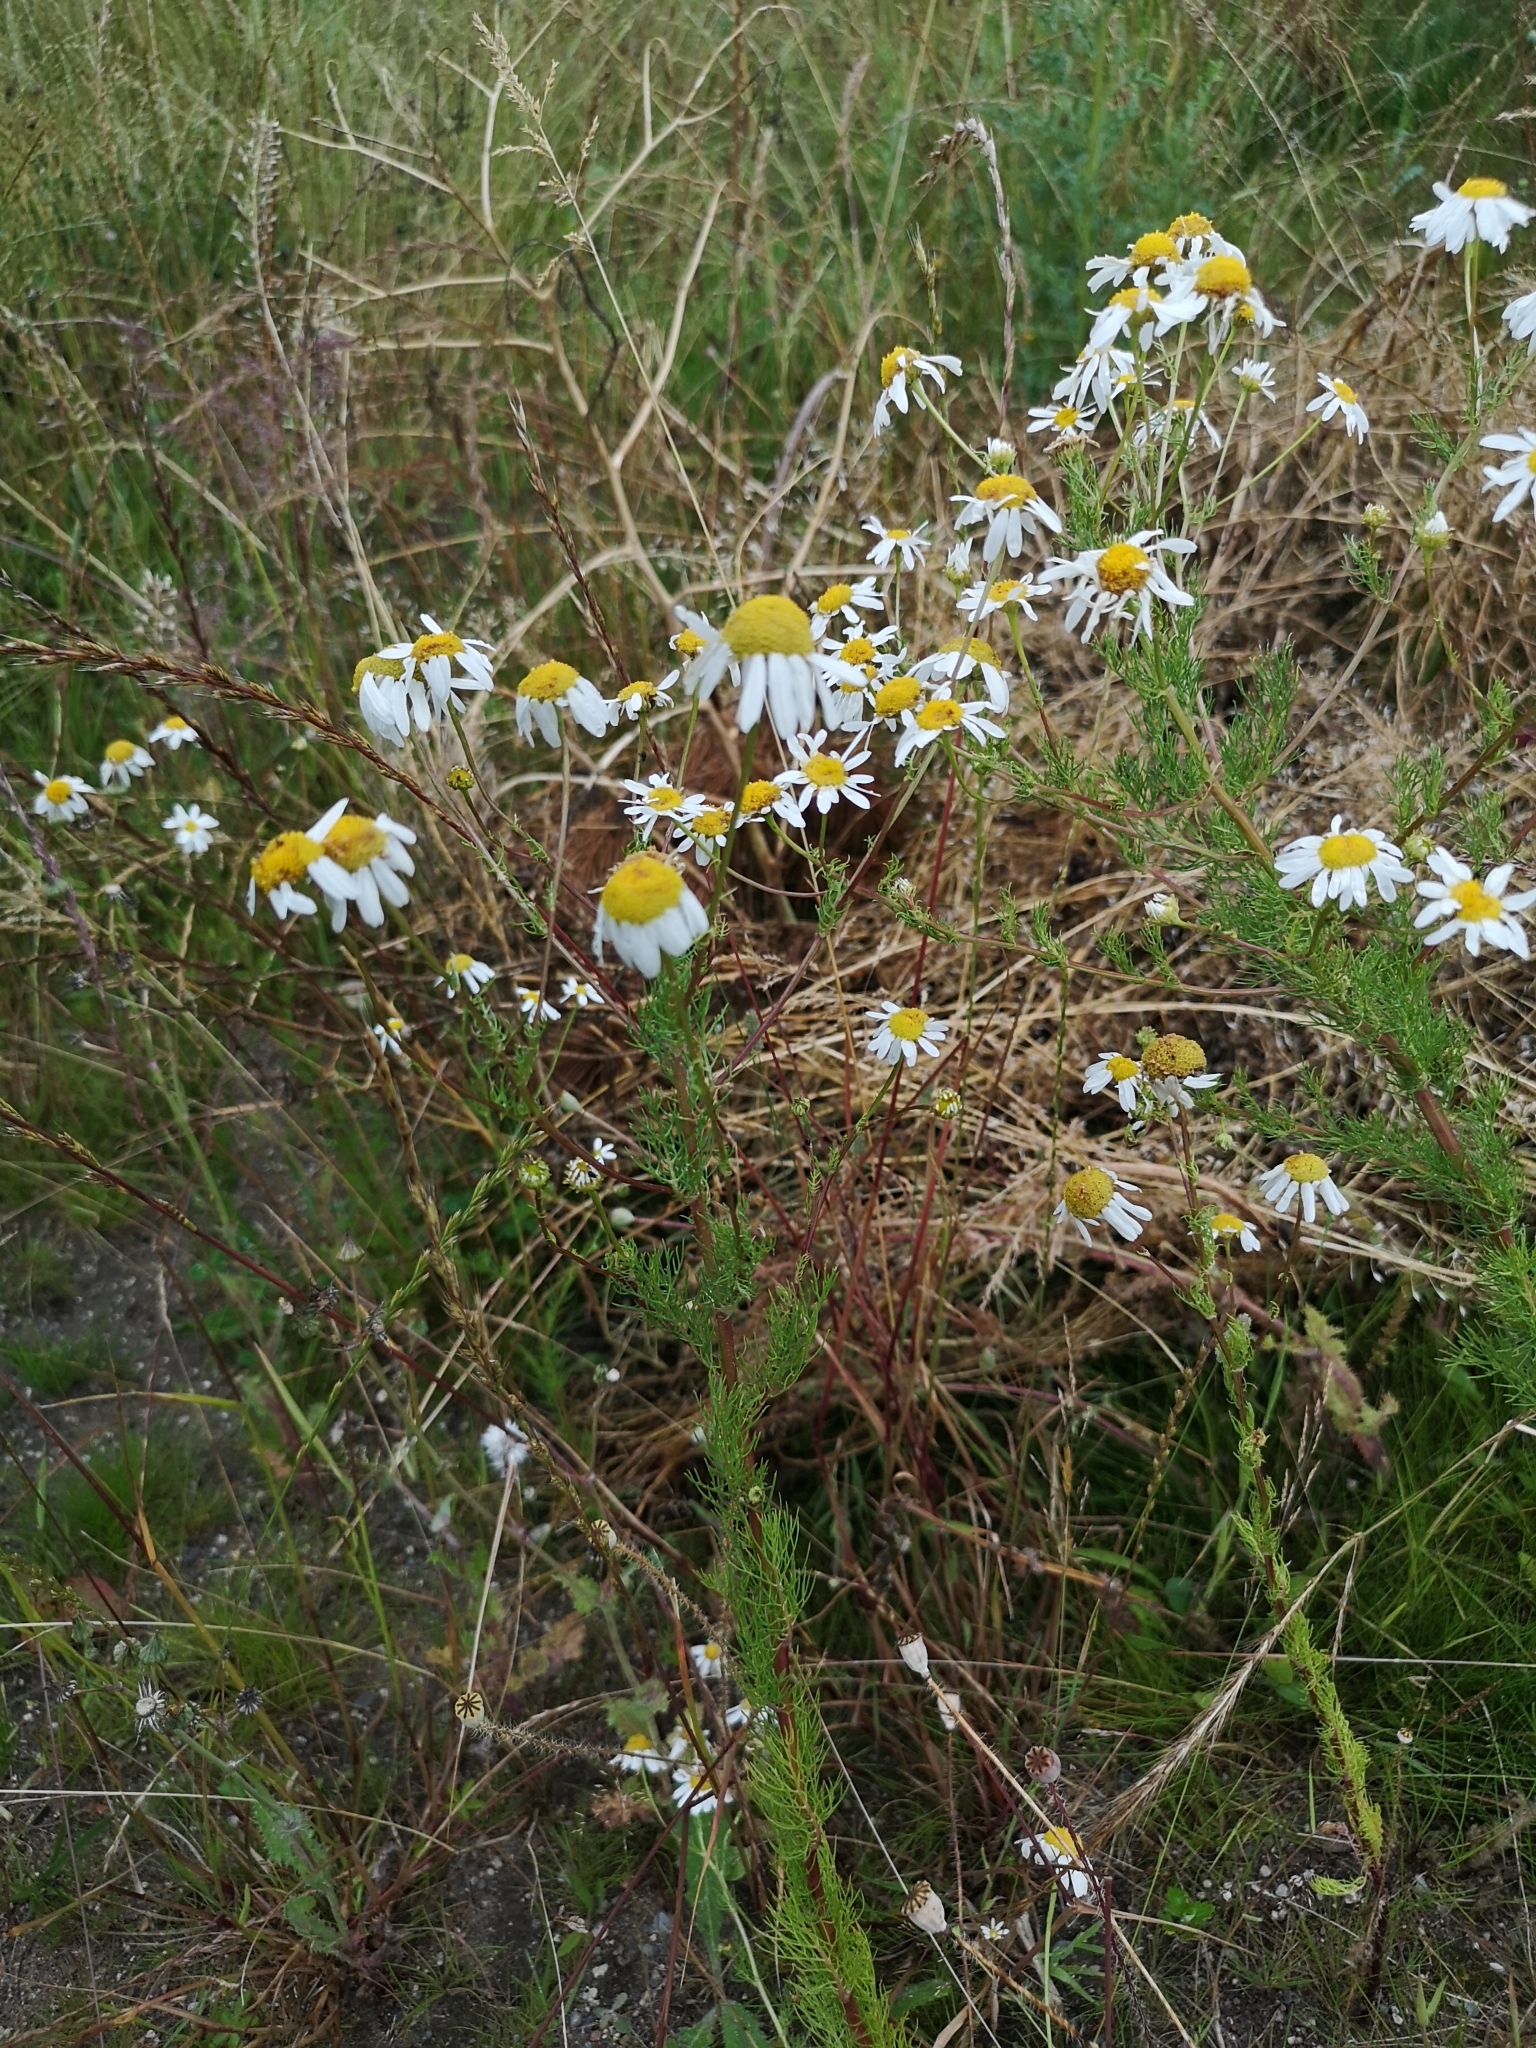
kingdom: Plantae
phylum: Tracheophyta
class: Magnoliopsida
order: Asterales
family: Asteraceae
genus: Tripleurospermum
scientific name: Tripleurospermum inodorum
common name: Scentless mayweed
